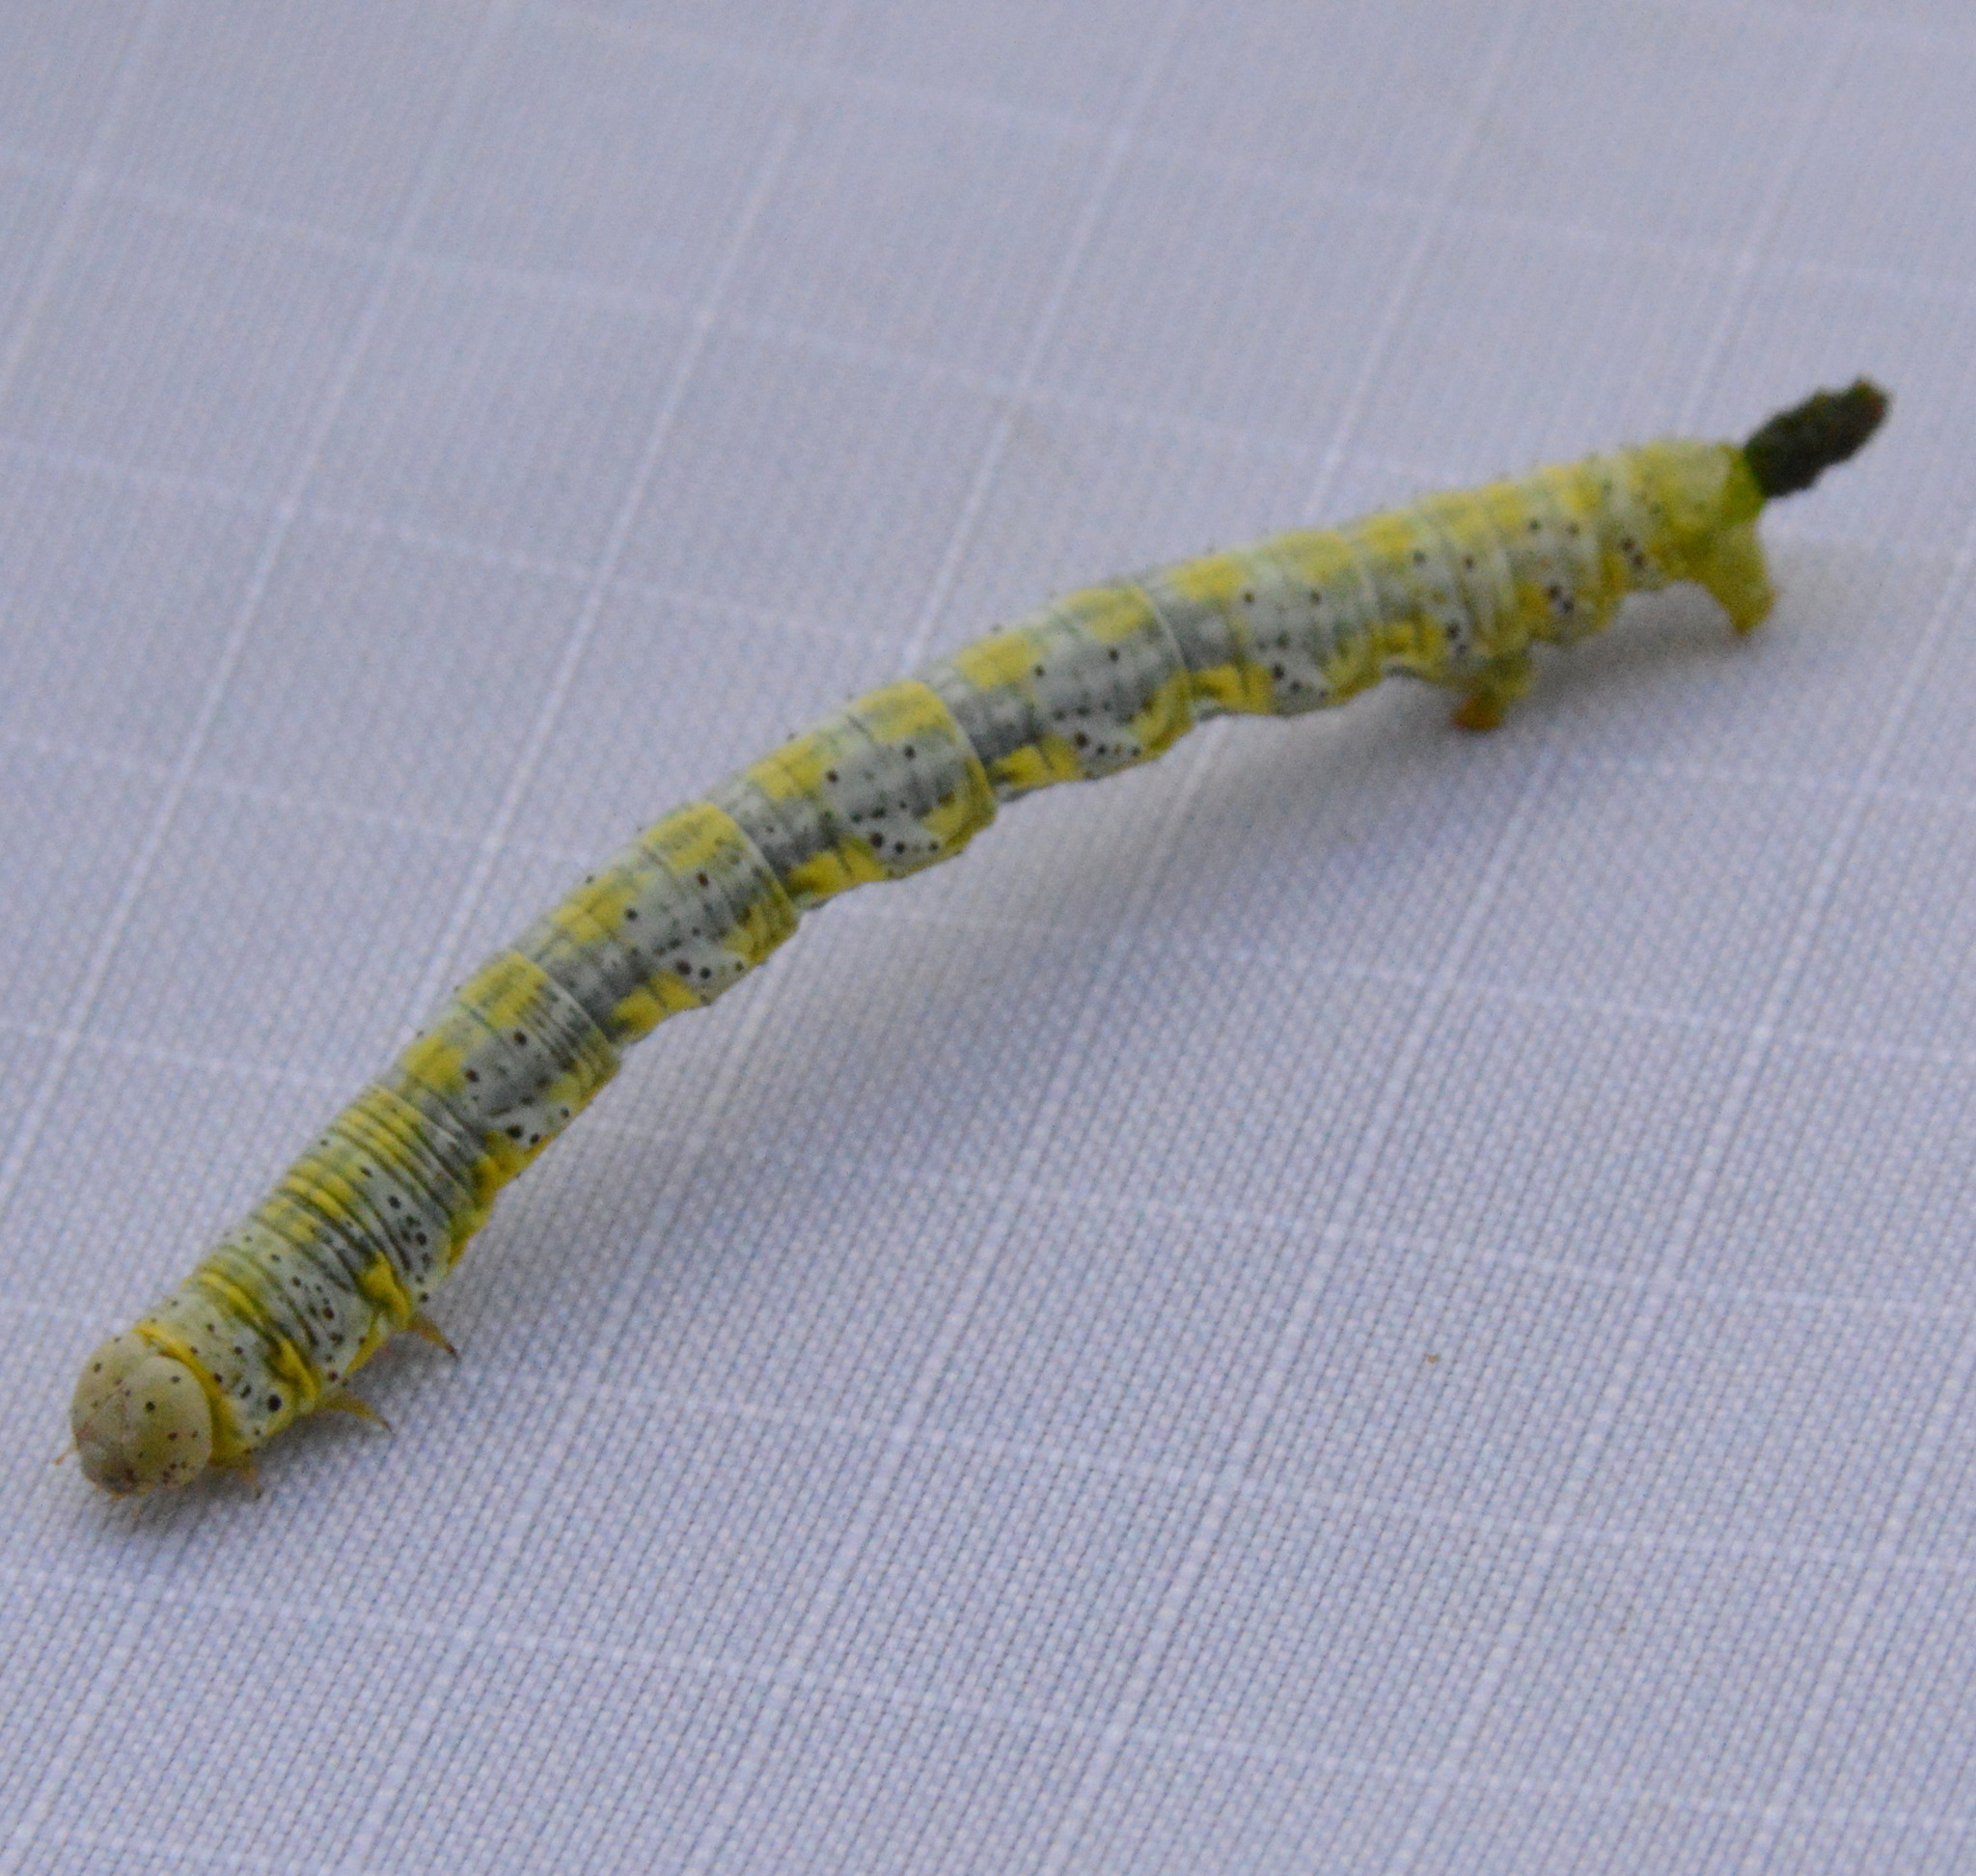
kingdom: Animalia
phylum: Arthropoda
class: Insecta
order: Lepidoptera
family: Geometridae
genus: Isturgia
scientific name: Isturgia dislocaria
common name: Pale-viened enconista
